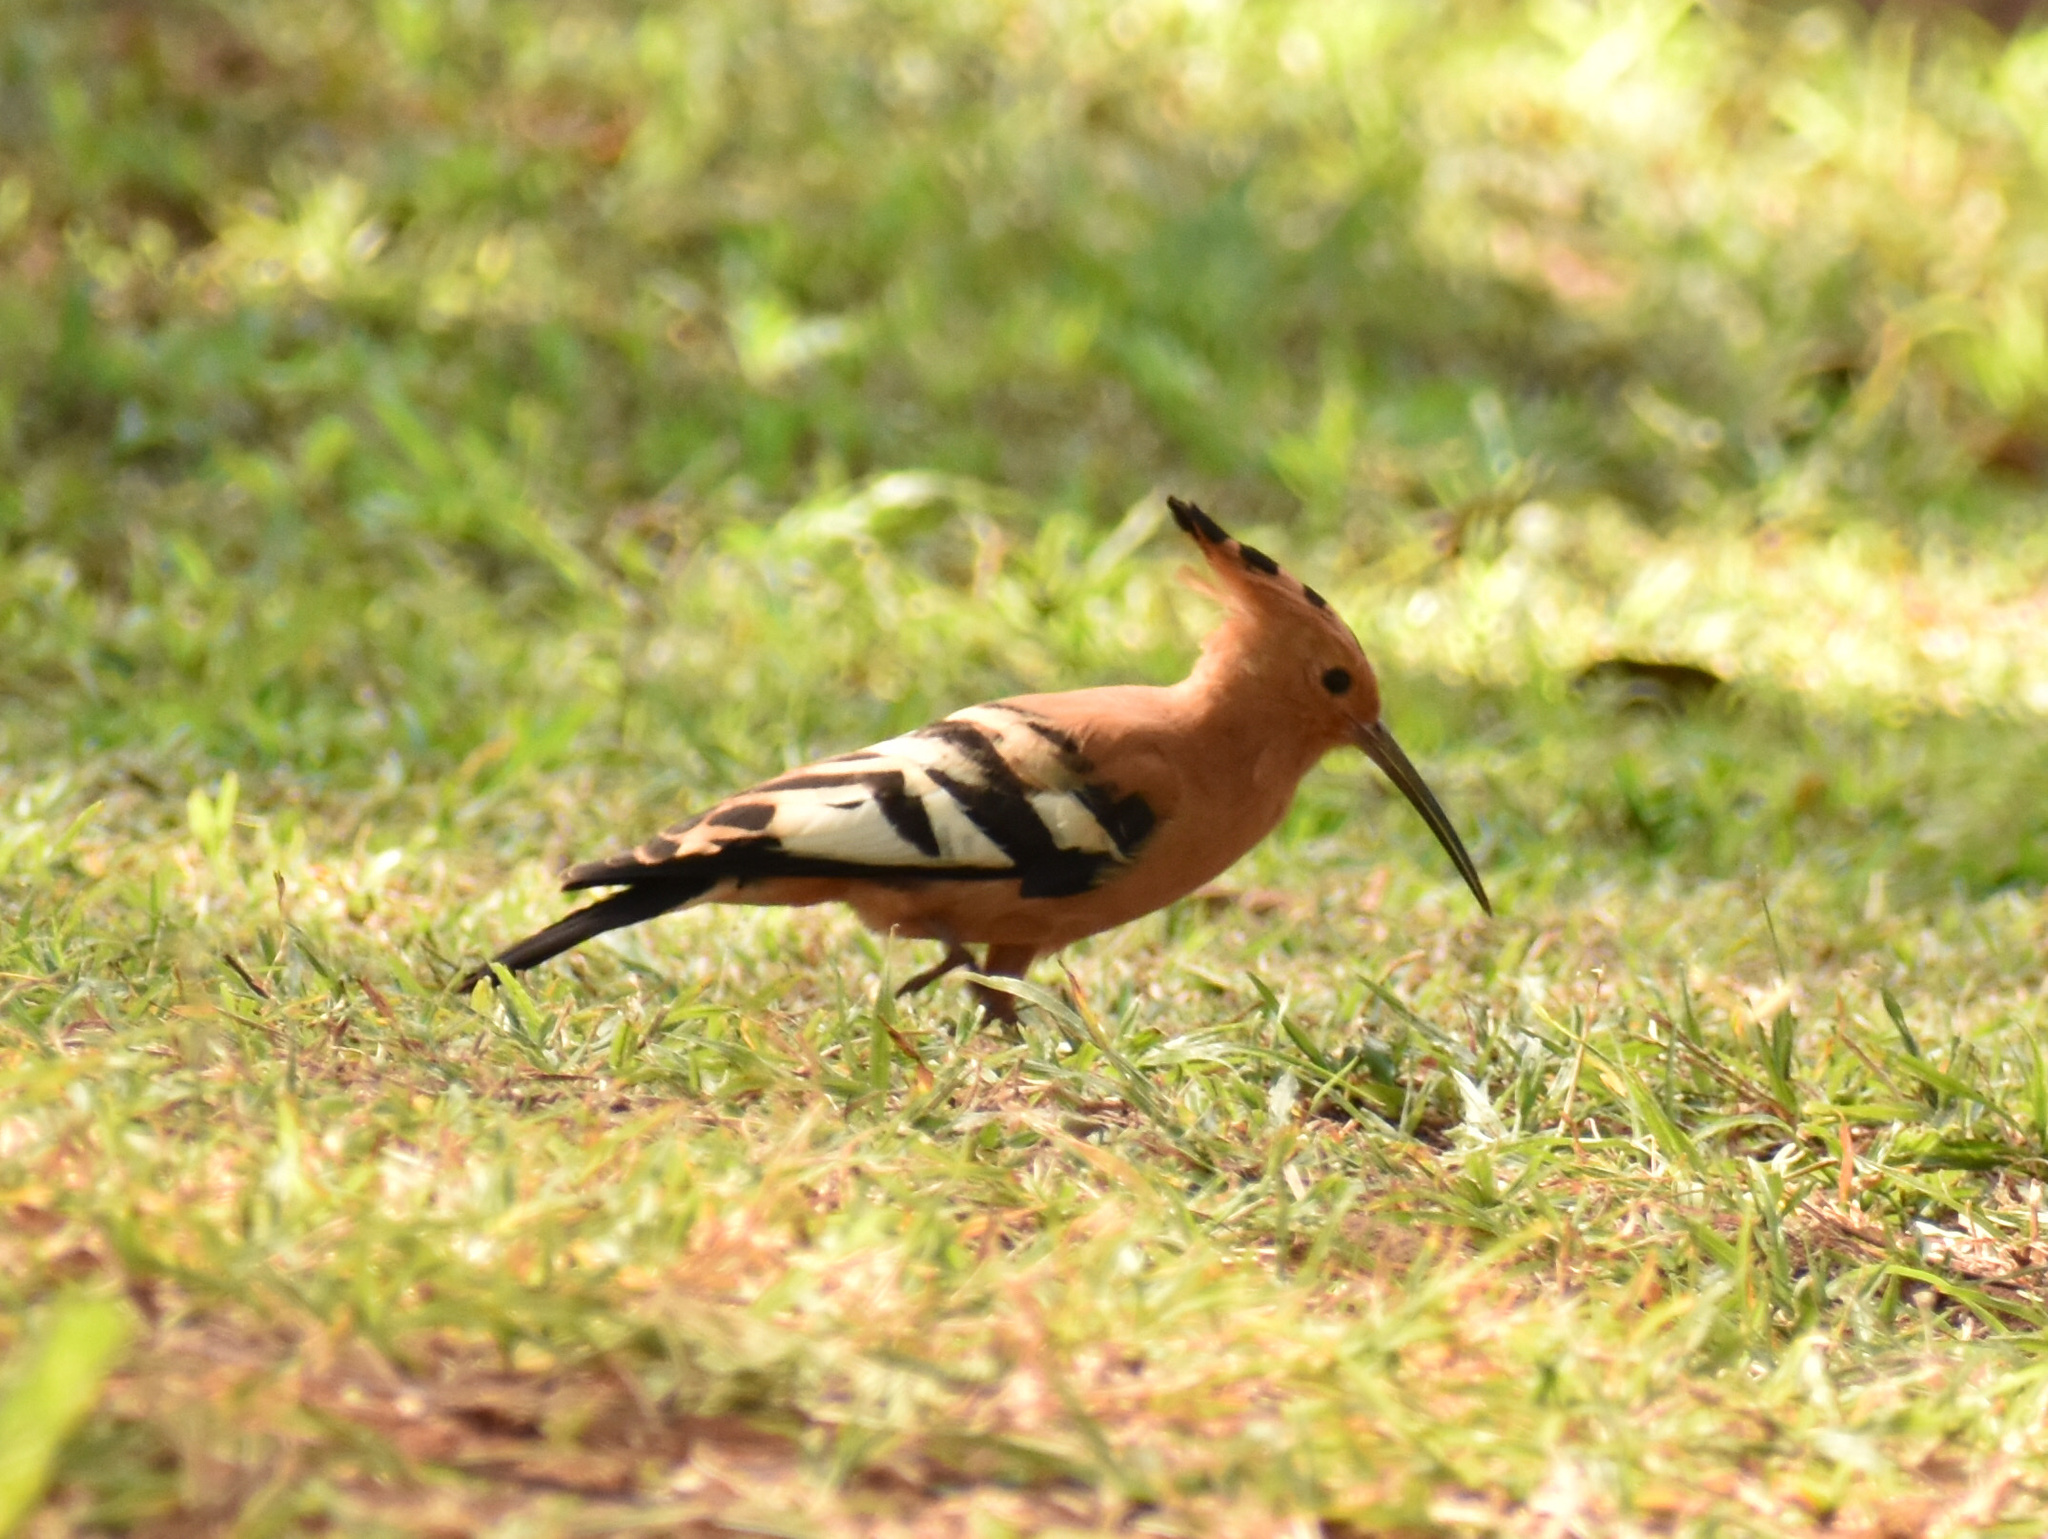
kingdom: Animalia
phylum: Chordata
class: Aves
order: Bucerotiformes
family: Upupidae
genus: Upupa
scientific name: Upupa africana
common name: African hoopoe
